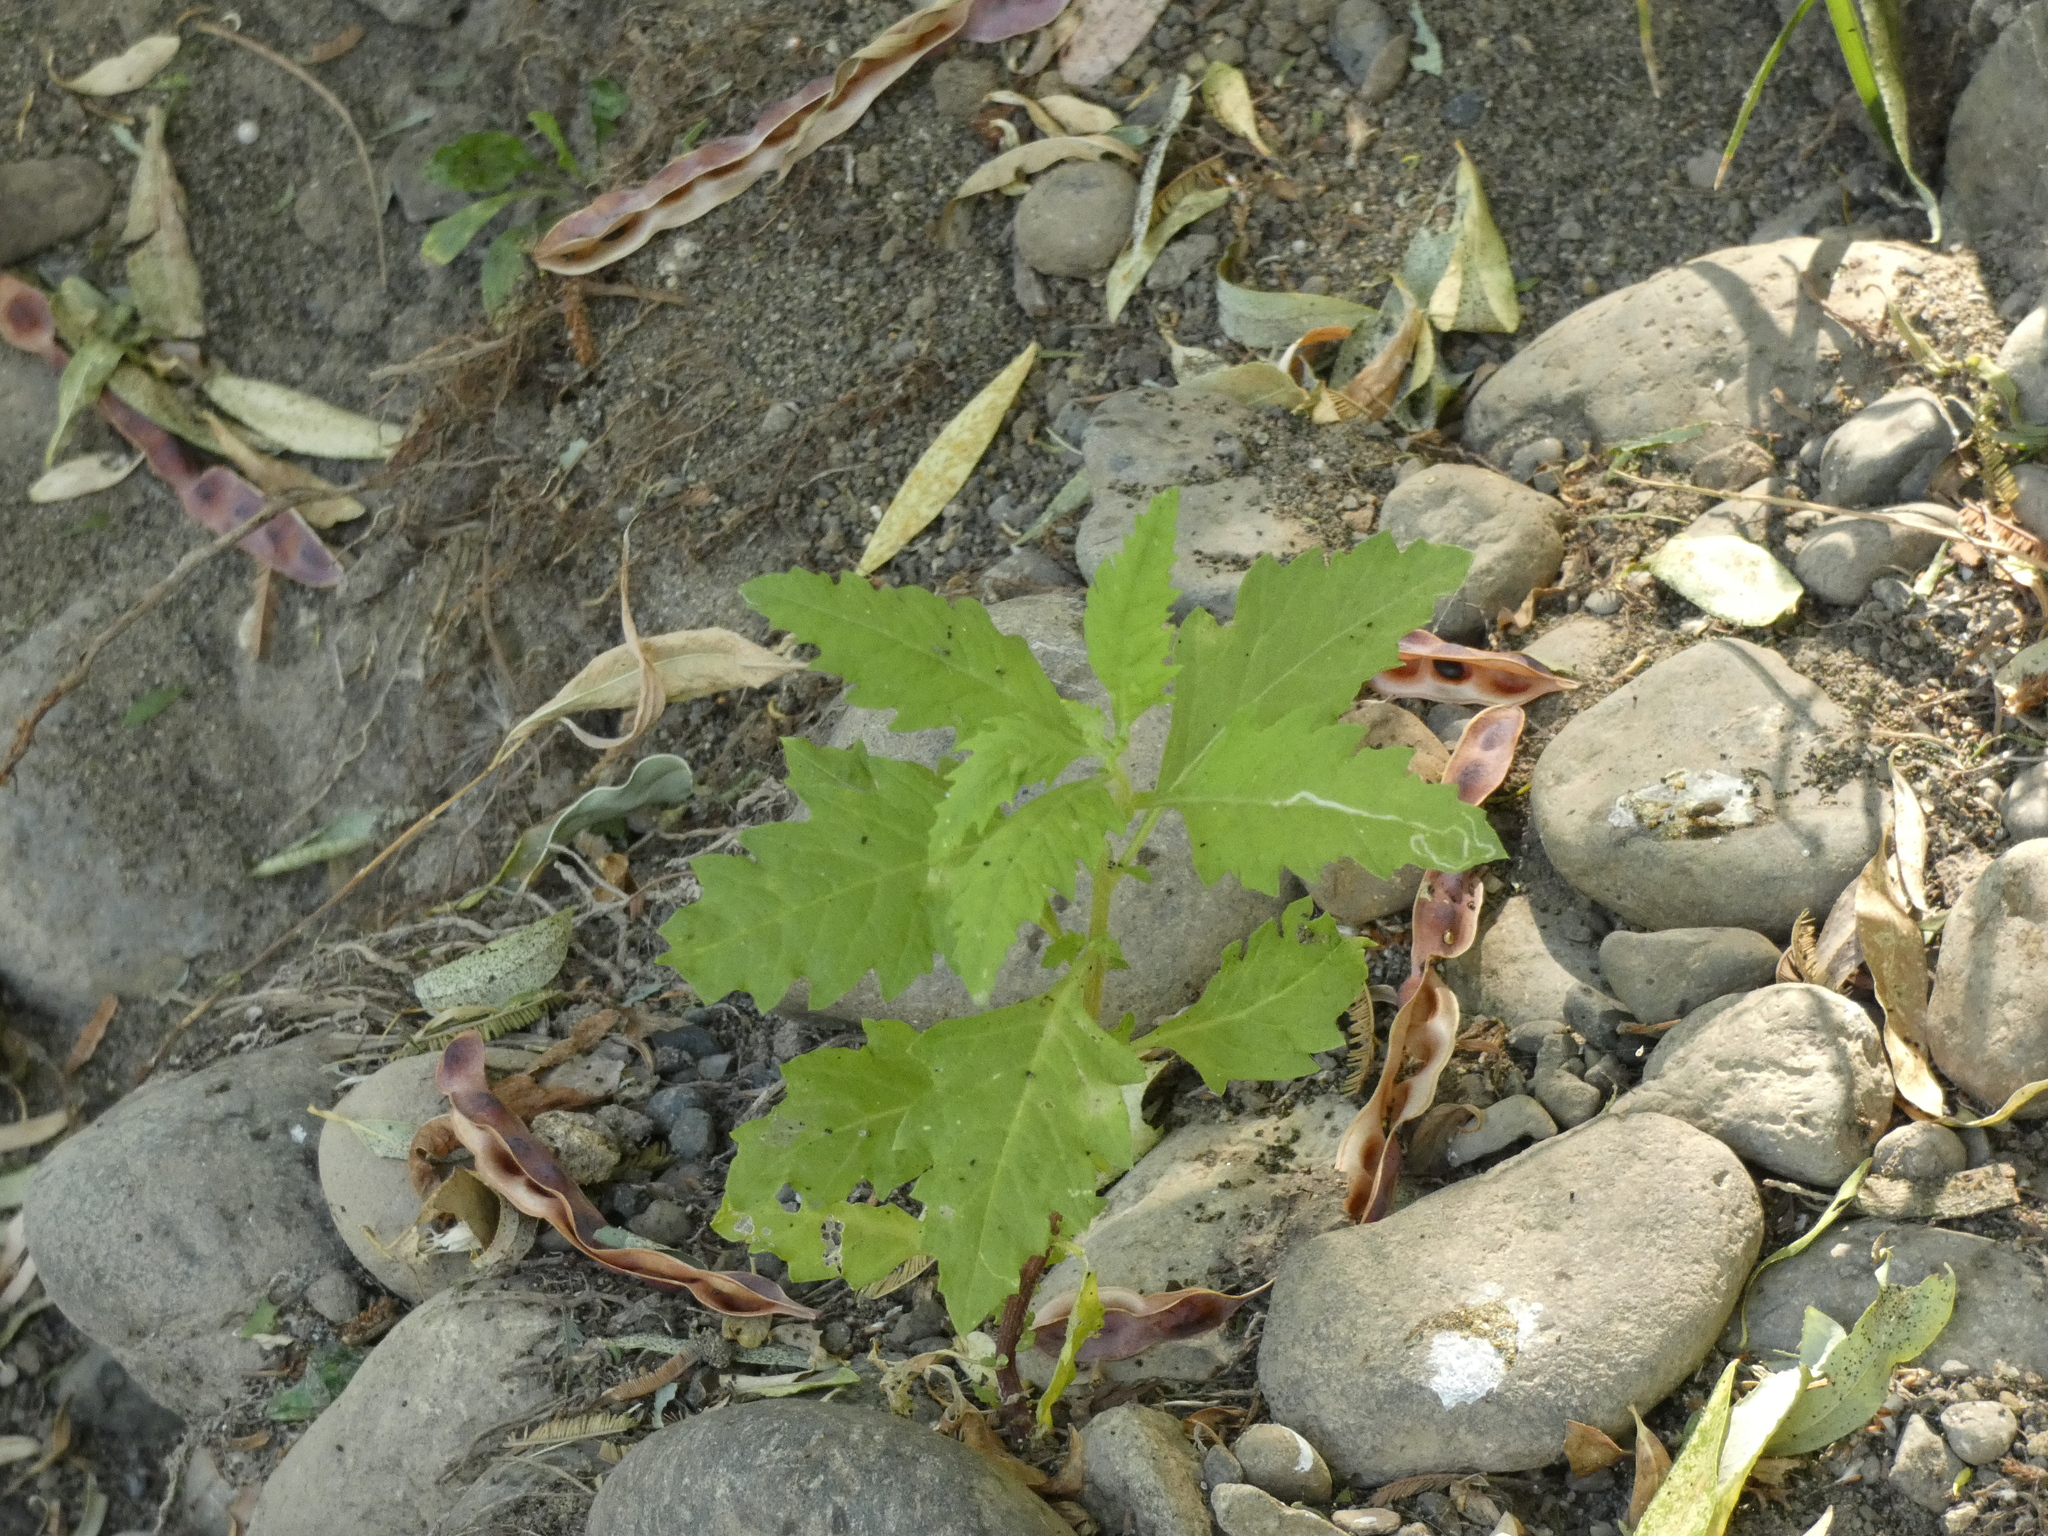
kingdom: Plantae
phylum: Tracheophyta
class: Magnoliopsida
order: Caryophyllales
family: Amaranthaceae
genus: Dysphania
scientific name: Dysphania ambrosioides
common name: Wormseed
